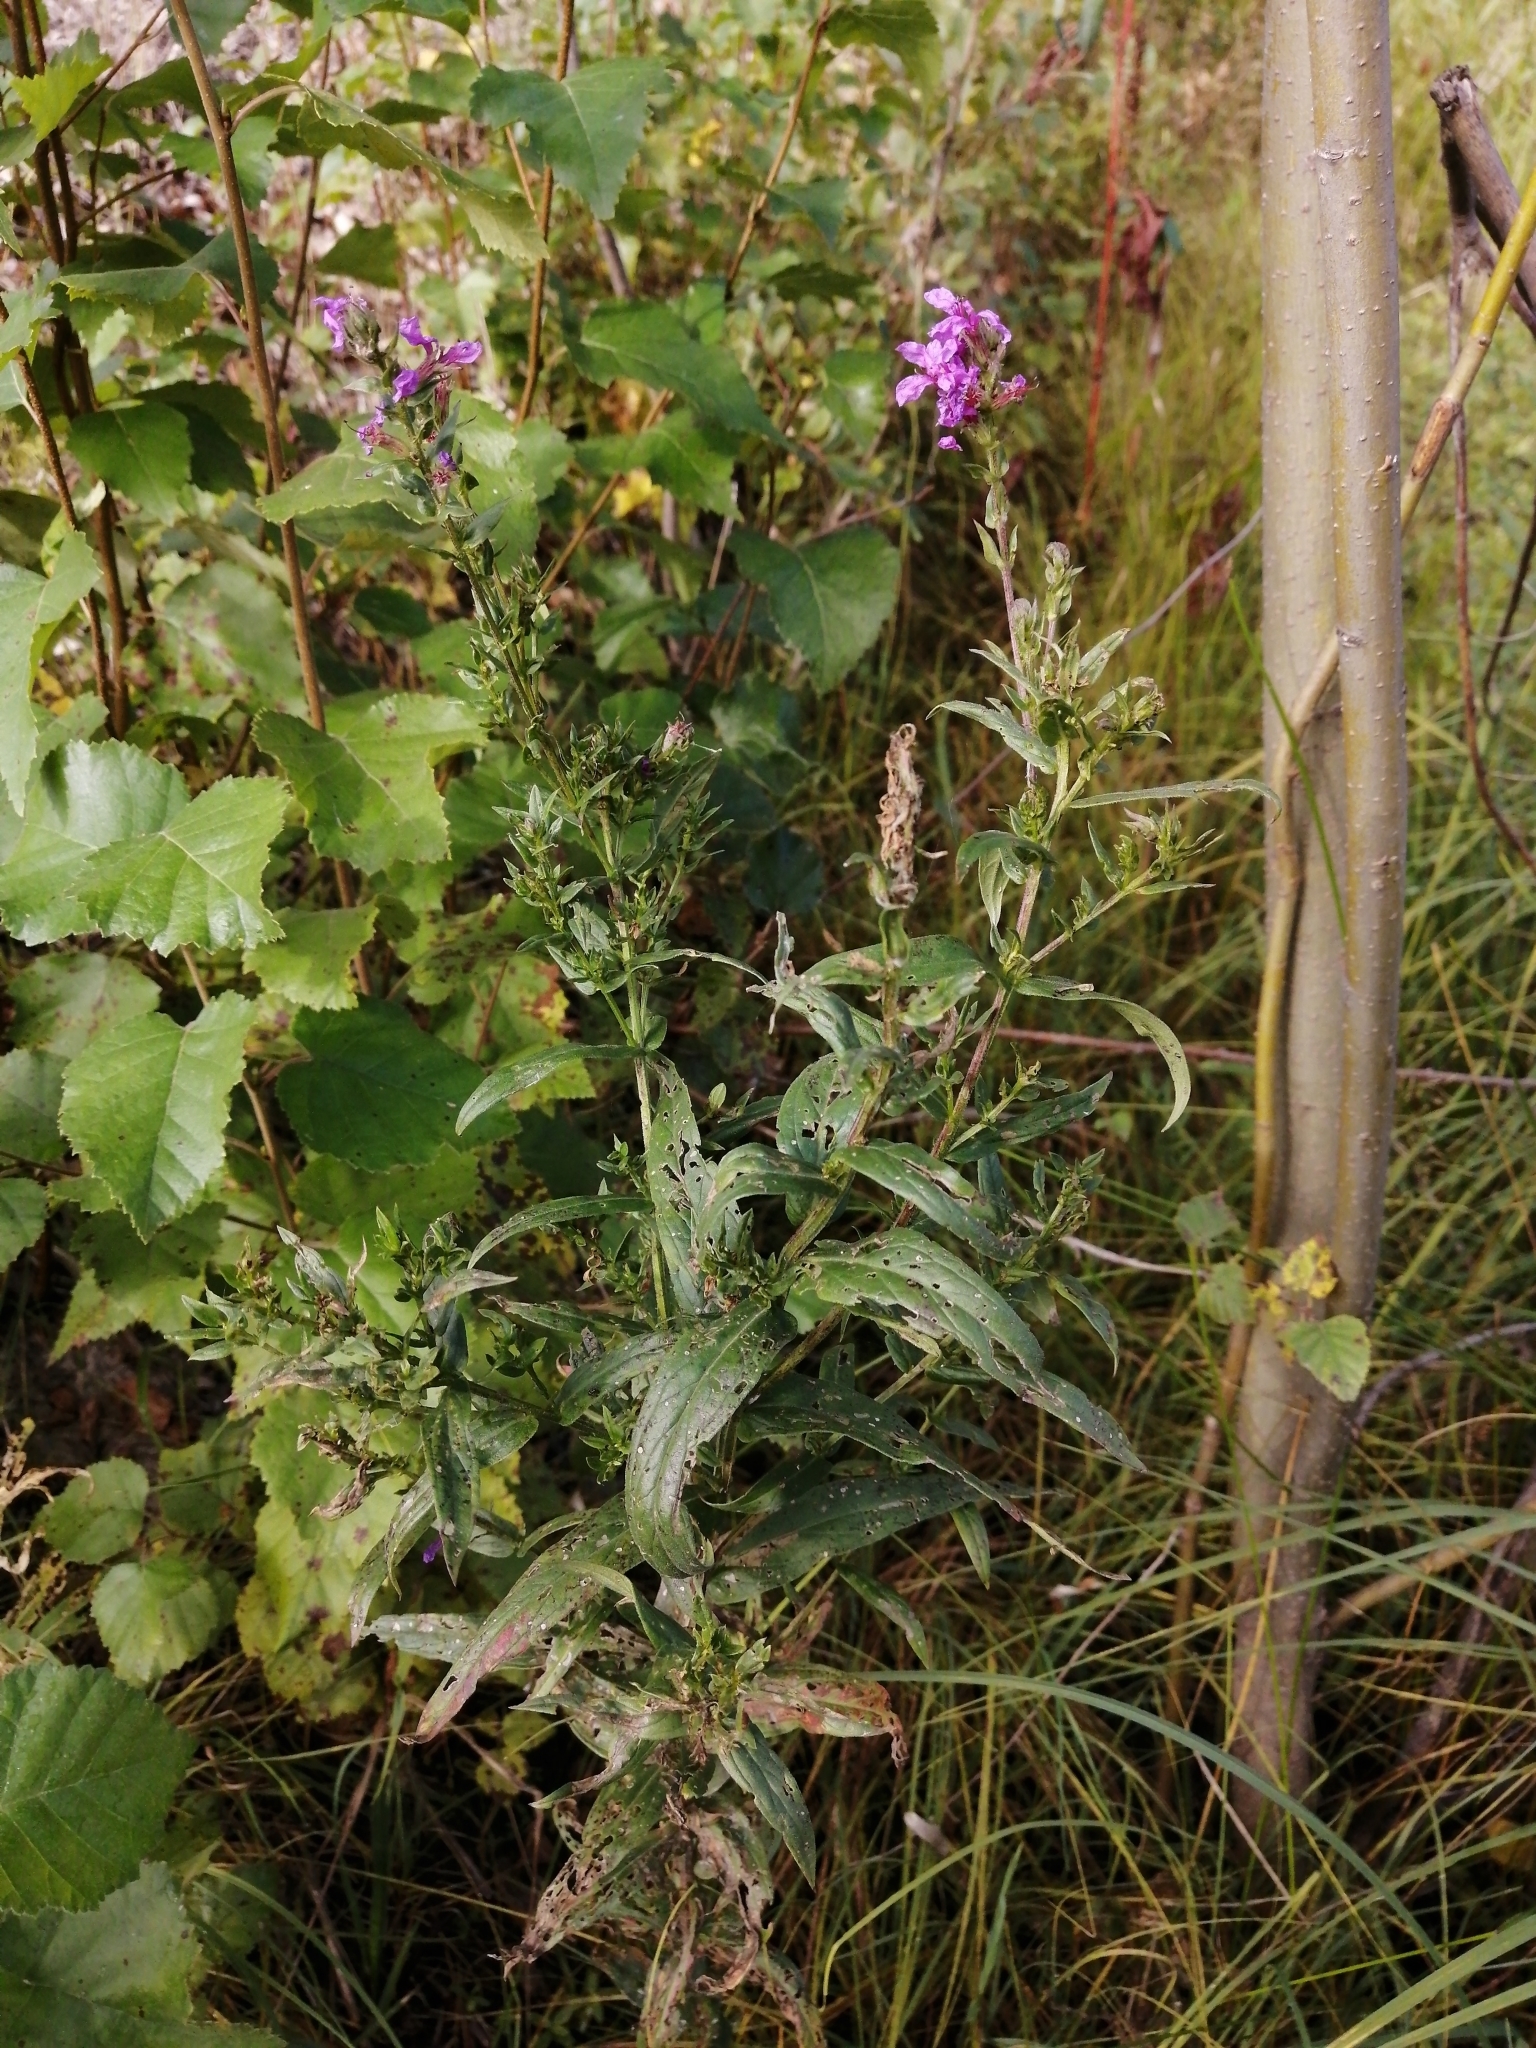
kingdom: Plantae
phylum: Tracheophyta
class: Magnoliopsida
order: Myrtales
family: Lythraceae
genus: Lythrum
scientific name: Lythrum salicaria
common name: Purple loosestrife
